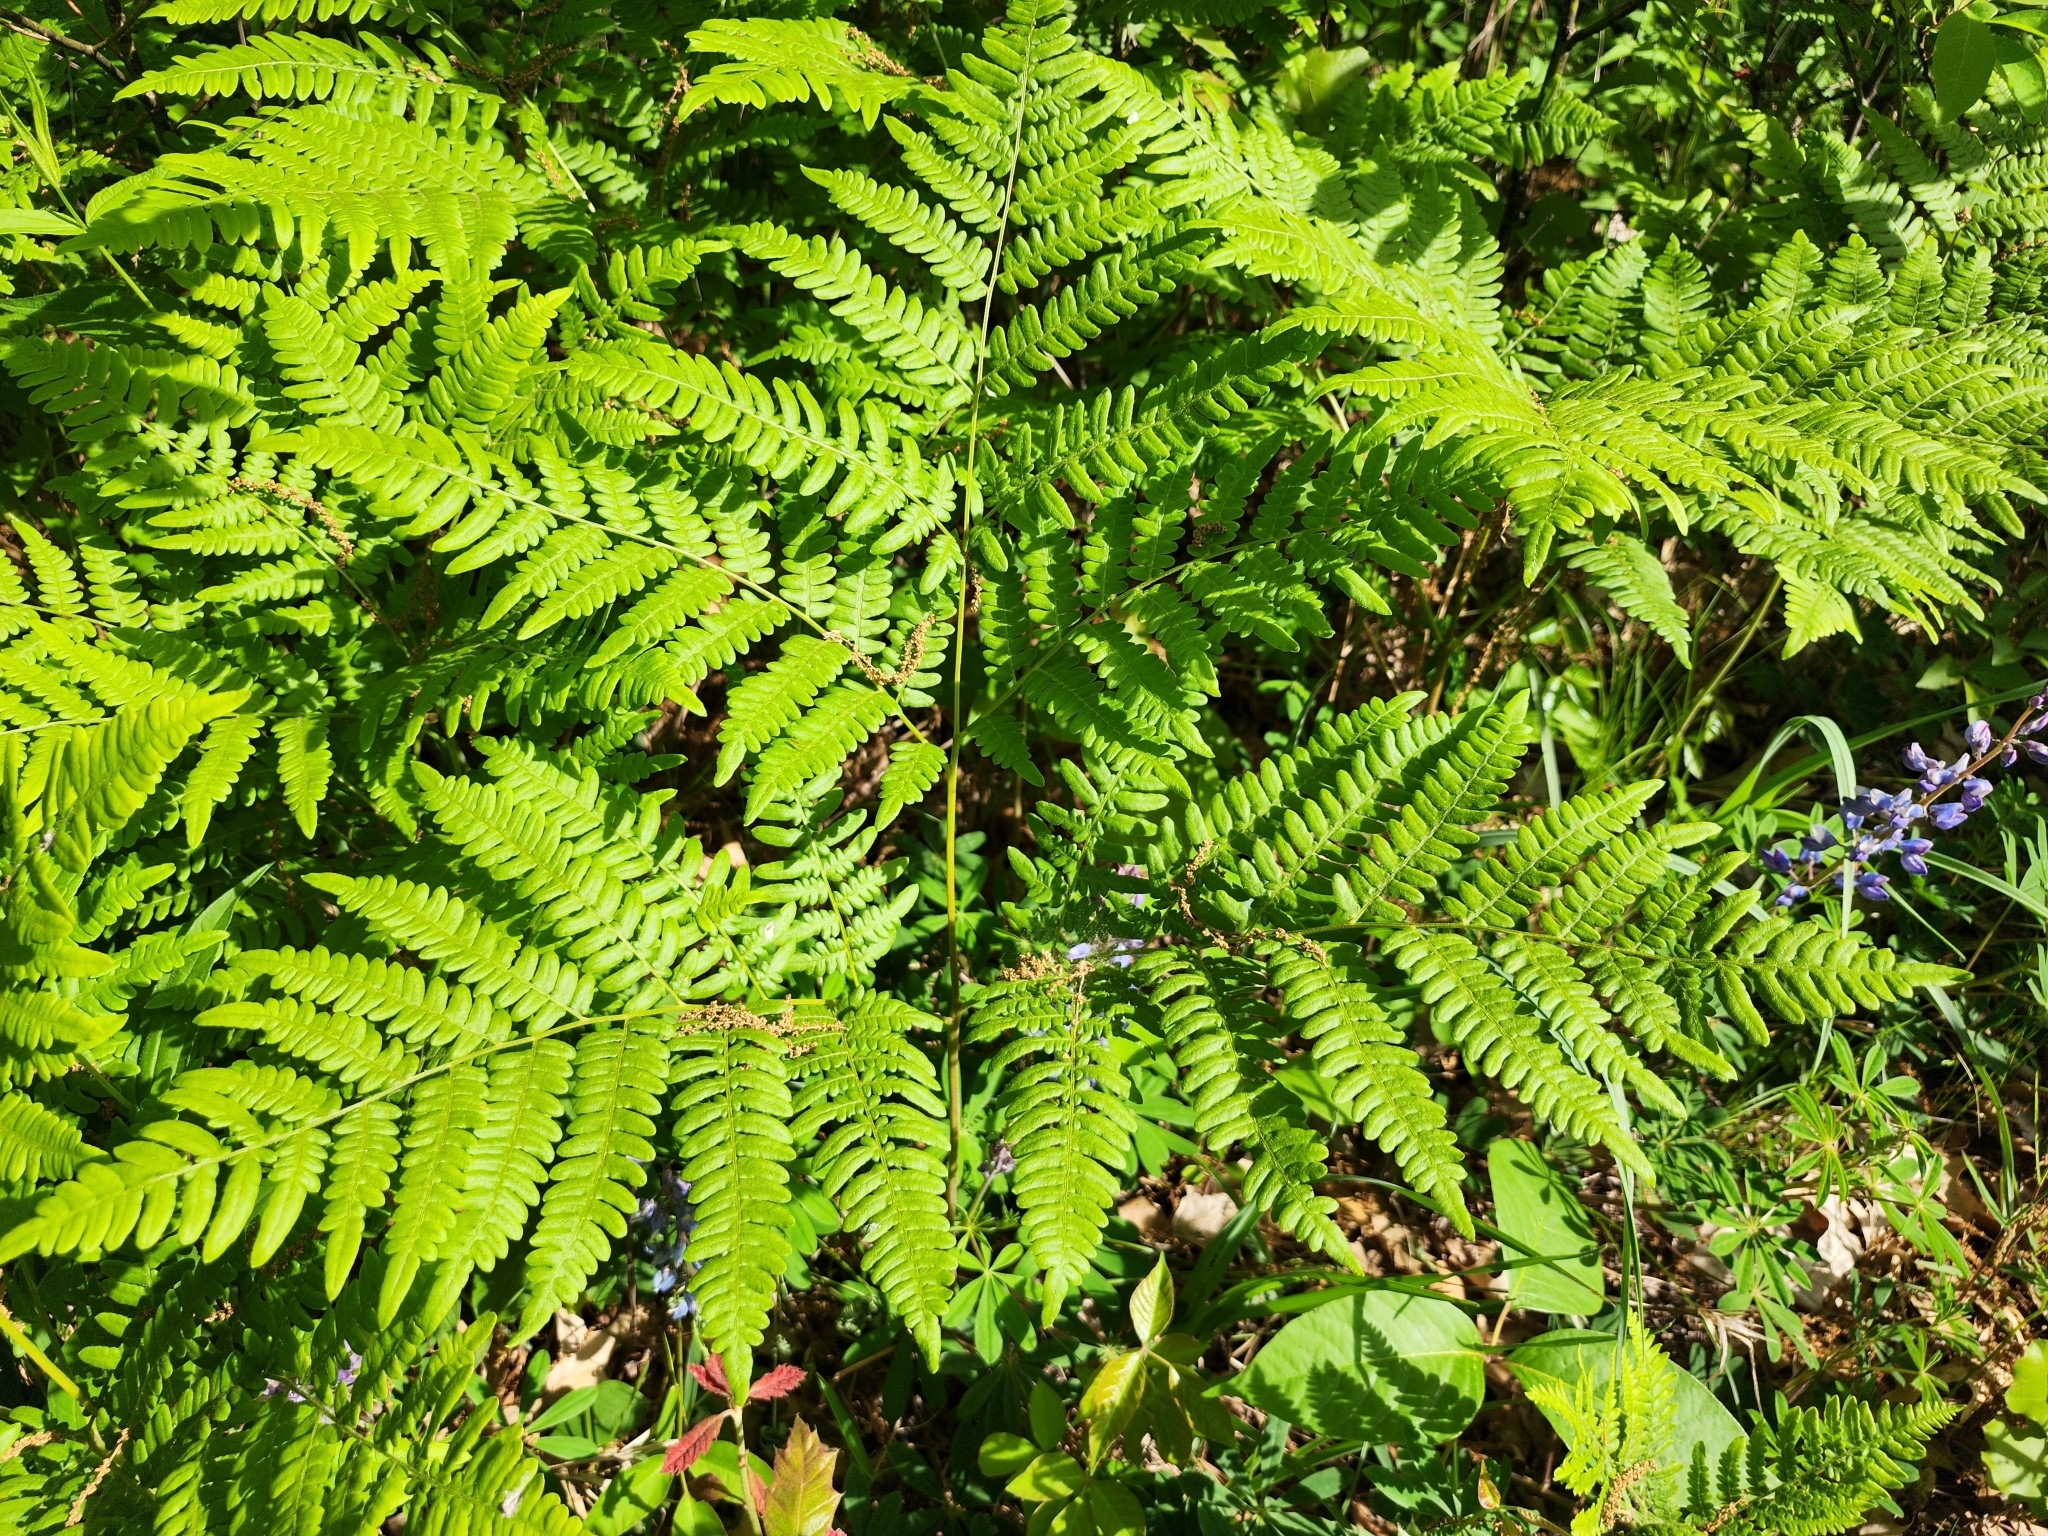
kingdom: Plantae
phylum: Tracheophyta
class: Polypodiopsida
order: Polypodiales
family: Dennstaedtiaceae
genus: Pteridium
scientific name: Pteridium aquilinum
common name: Bracken
